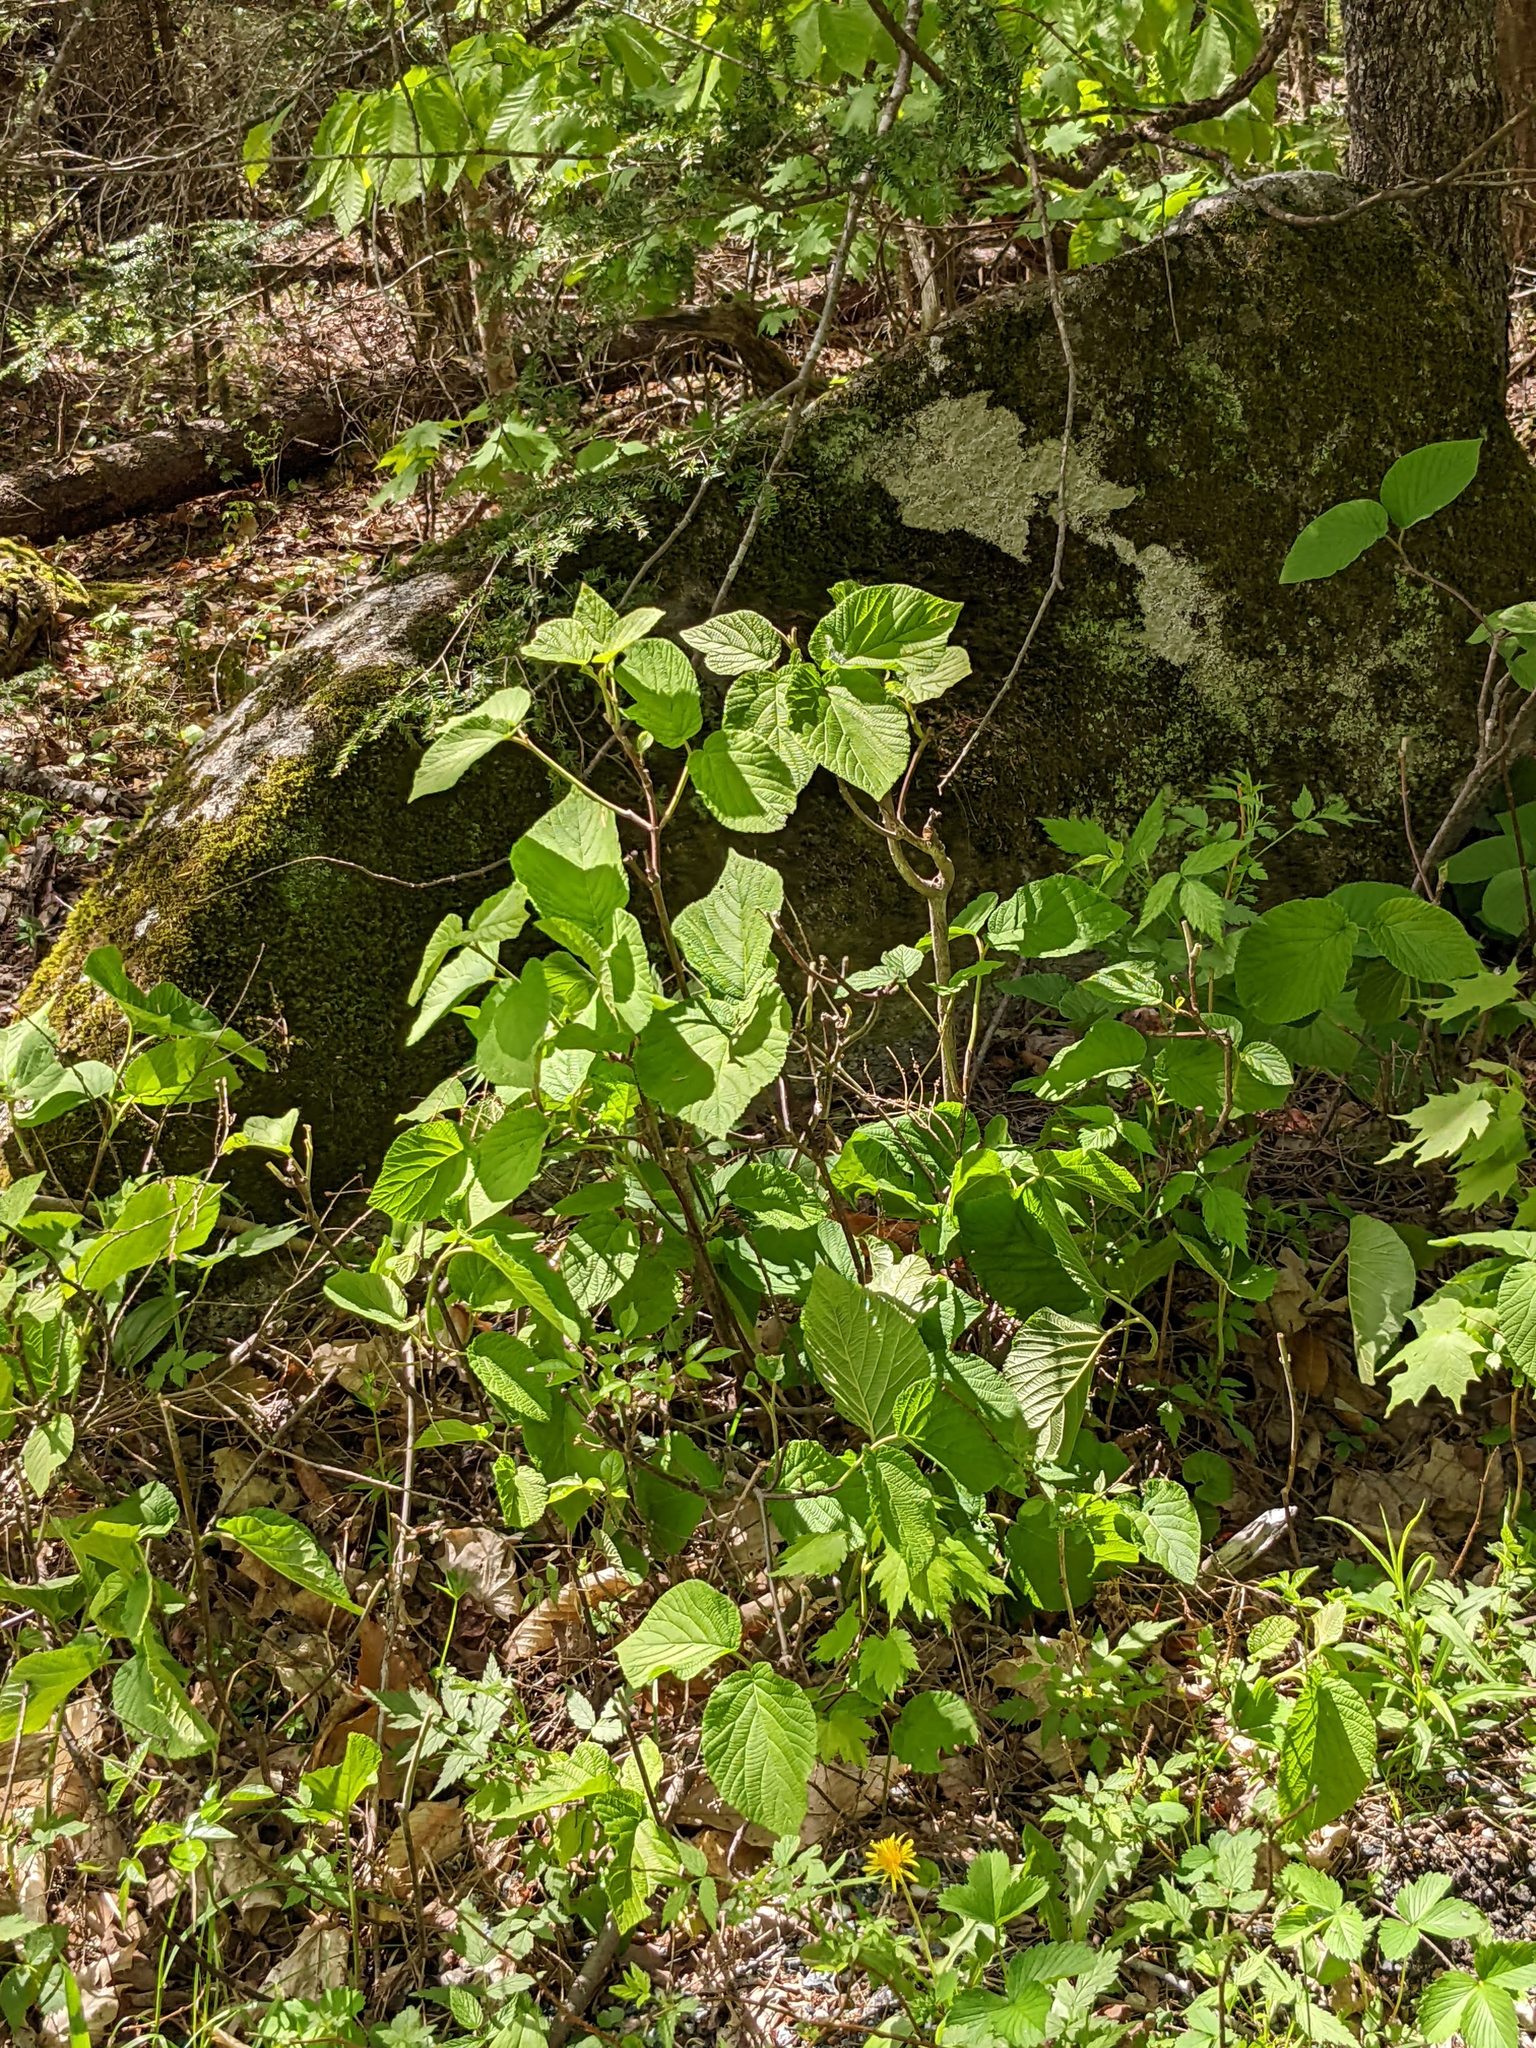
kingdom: Plantae
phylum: Tracheophyta
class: Magnoliopsida
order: Dipsacales
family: Viburnaceae
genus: Viburnum
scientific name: Viburnum lantanoides
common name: Hobblebush
